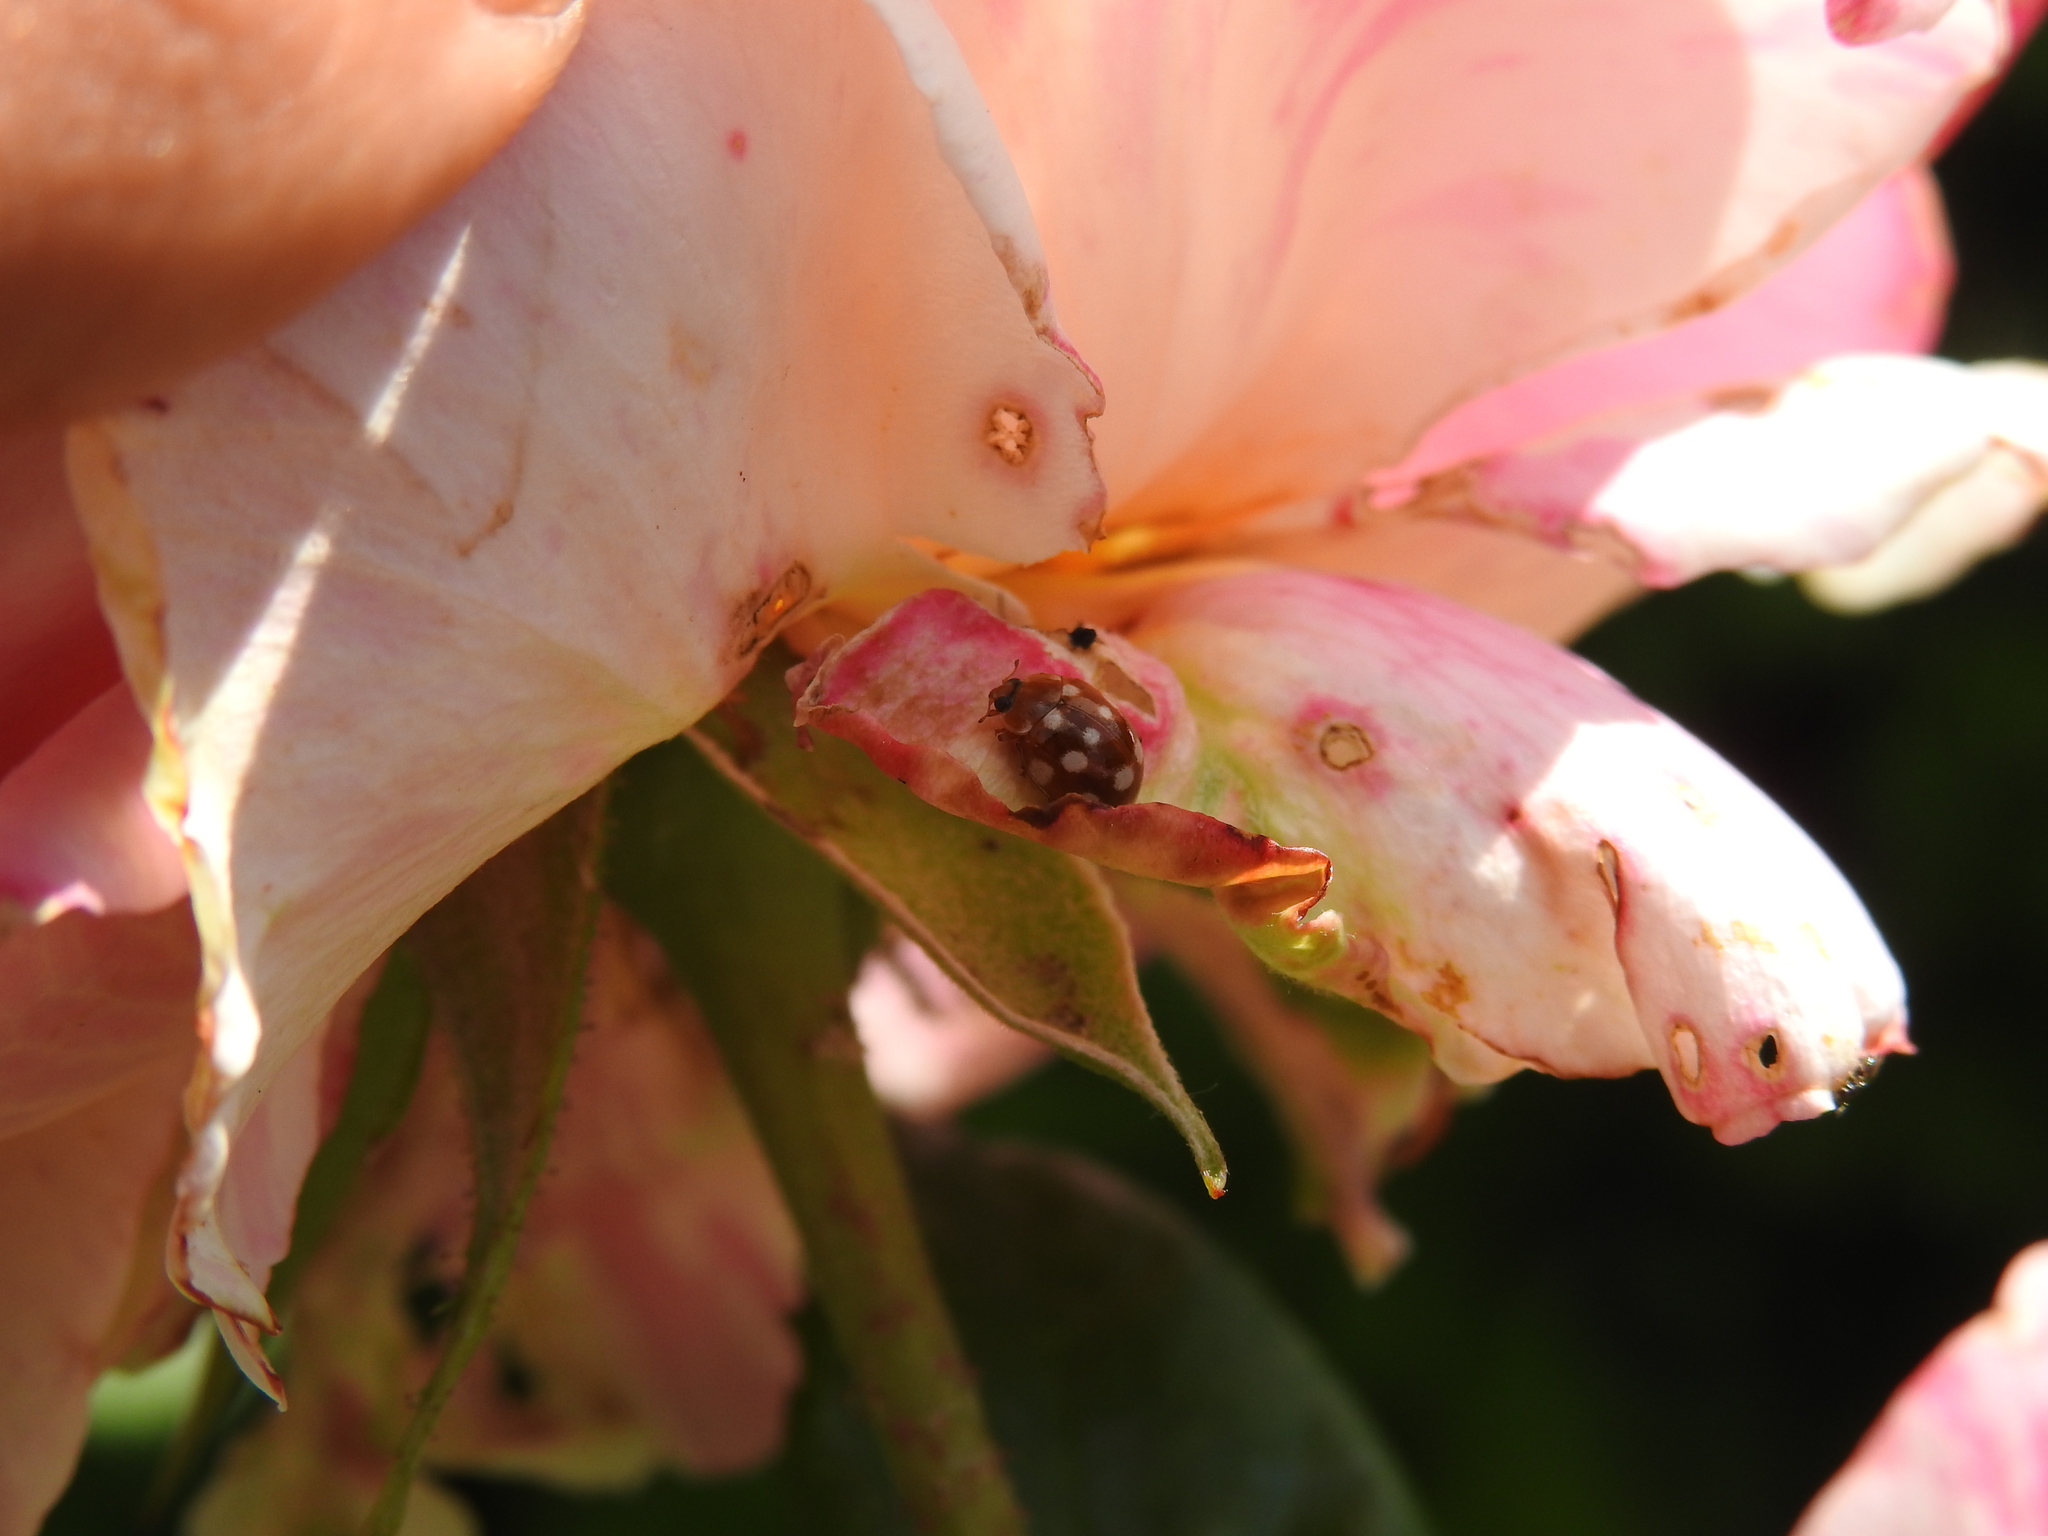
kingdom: Animalia
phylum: Arthropoda
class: Insecta
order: Coleoptera
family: Coccinellidae
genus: Calvia
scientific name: Calvia quatuordecimguttata
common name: Cream-spot ladybird
